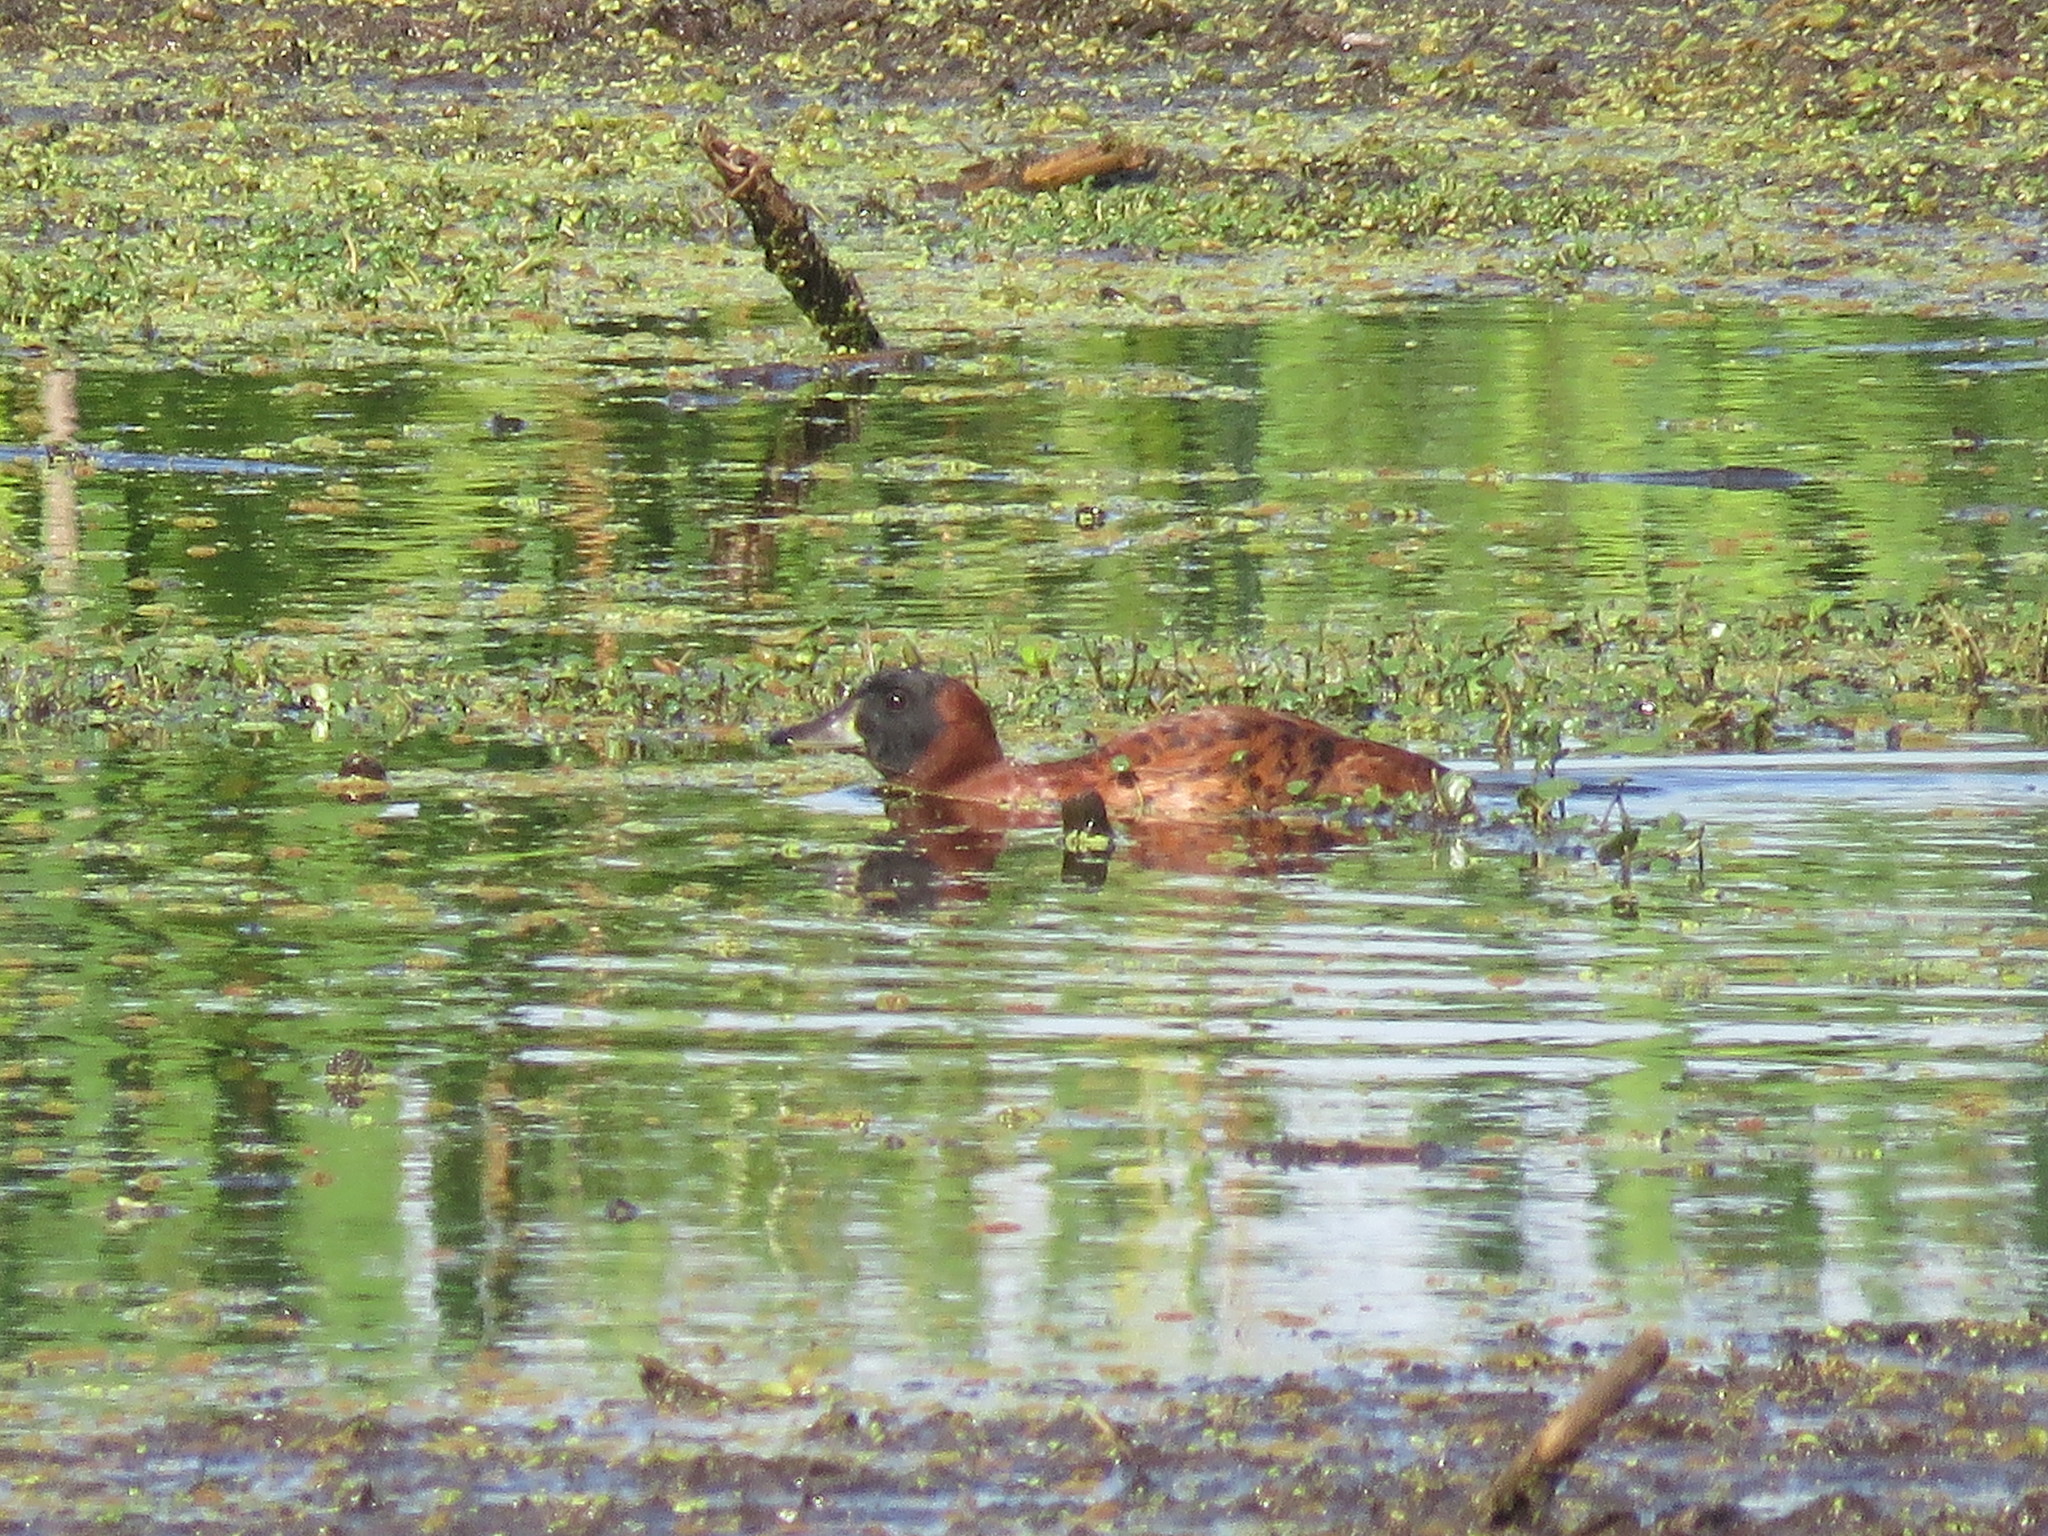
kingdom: Animalia
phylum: Chordata
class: Aves
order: Anseriformes
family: Anatidae
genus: Nomonyx
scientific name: Nomonyx dominicus
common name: Masked duck
